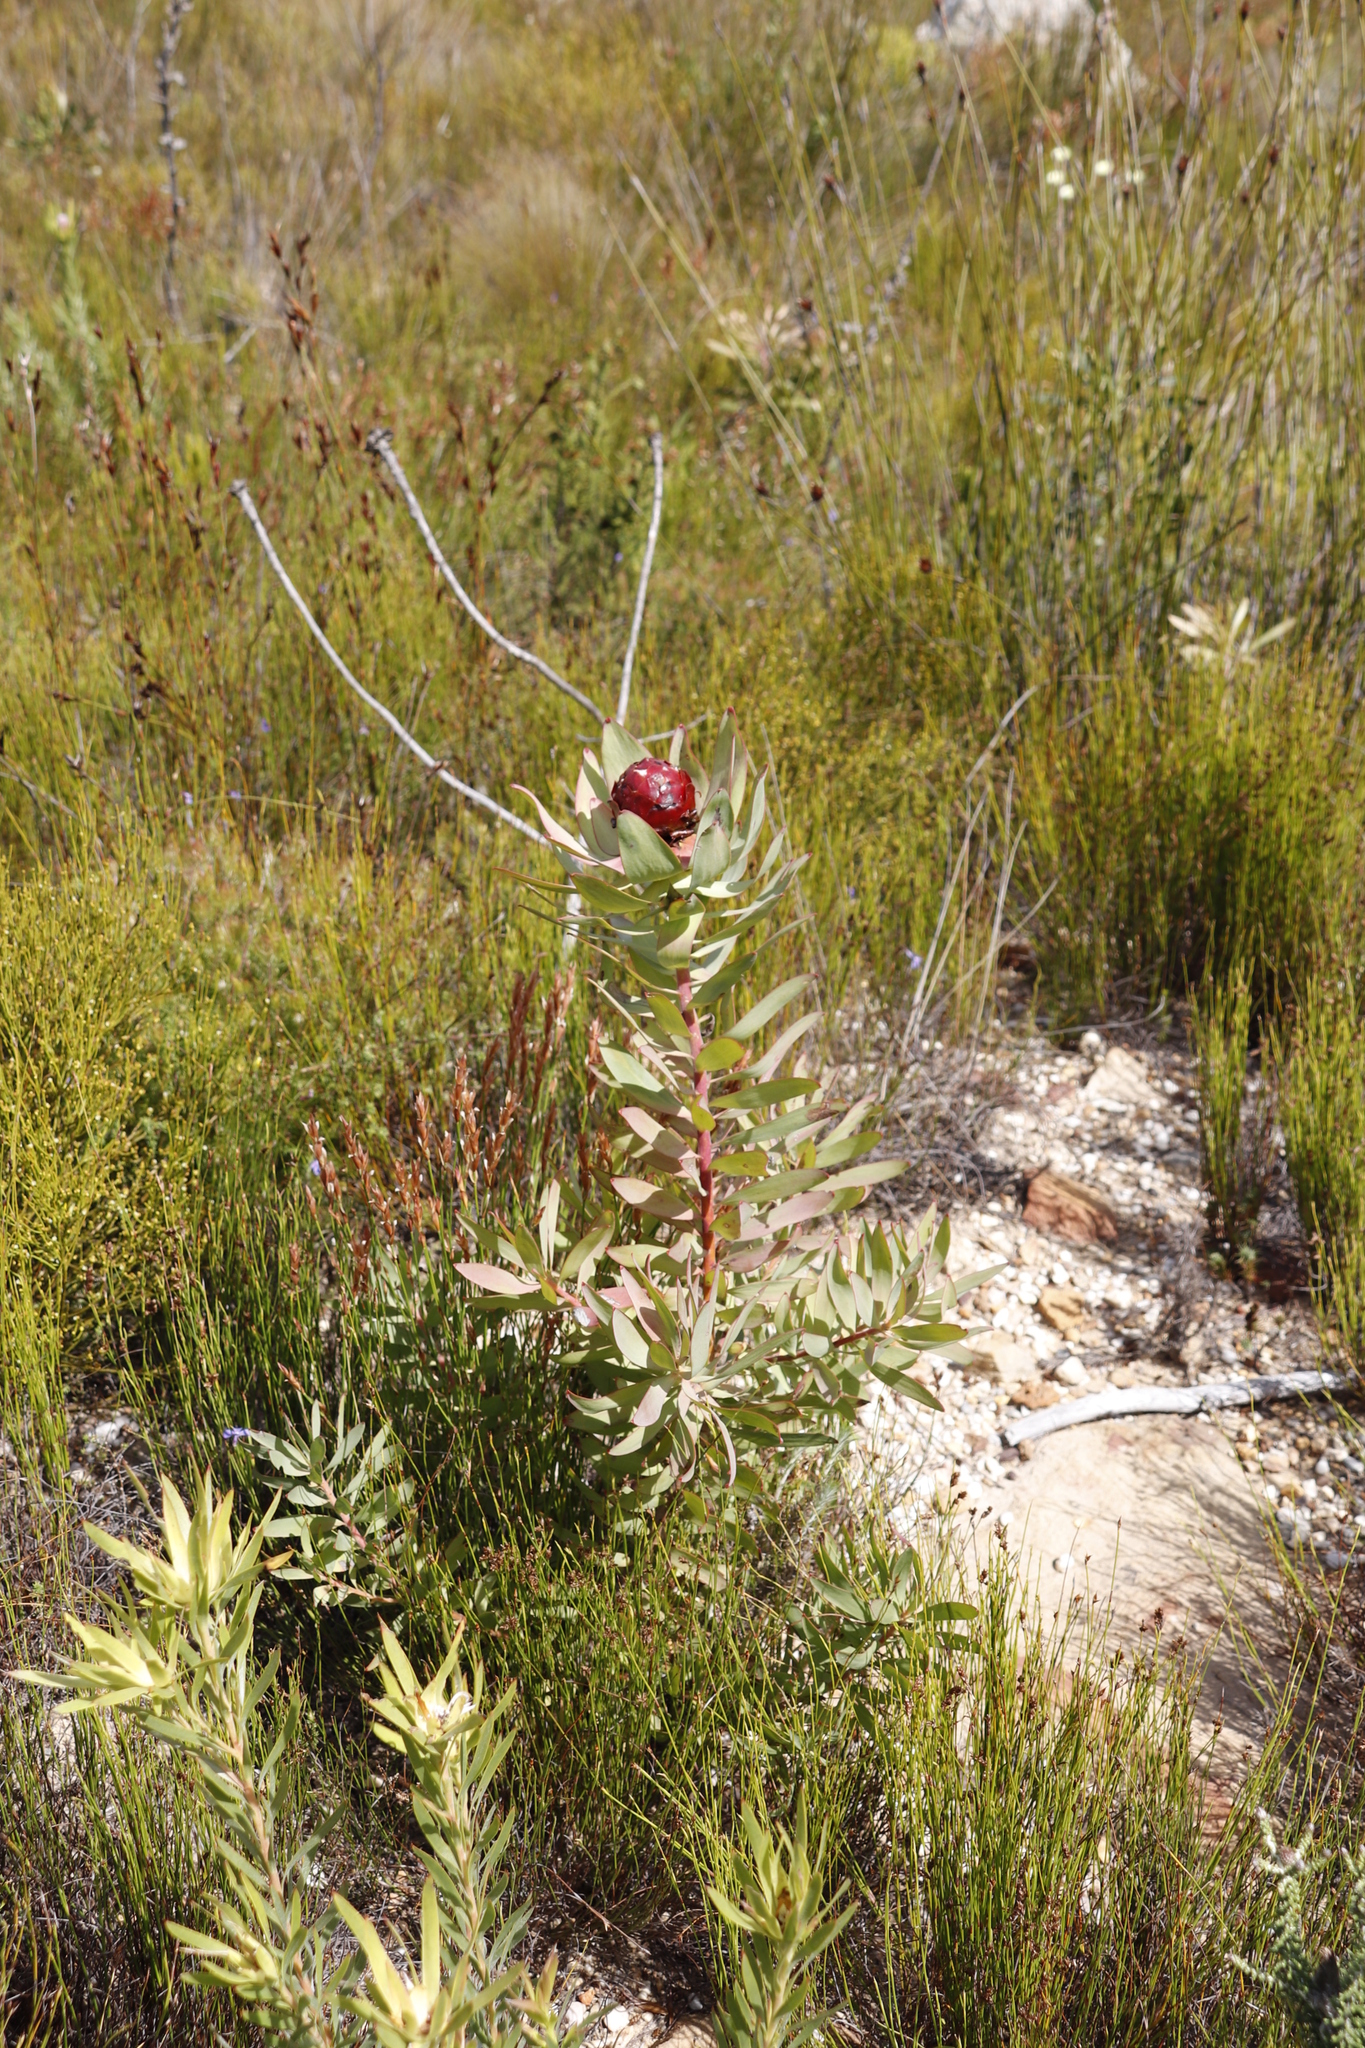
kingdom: Plantae
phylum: Tracheophyta
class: Magnoliopsida
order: Proteales
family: Proteaceae
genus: Leucadendron
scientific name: Leucadendron tinctum
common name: Spicy conebush
